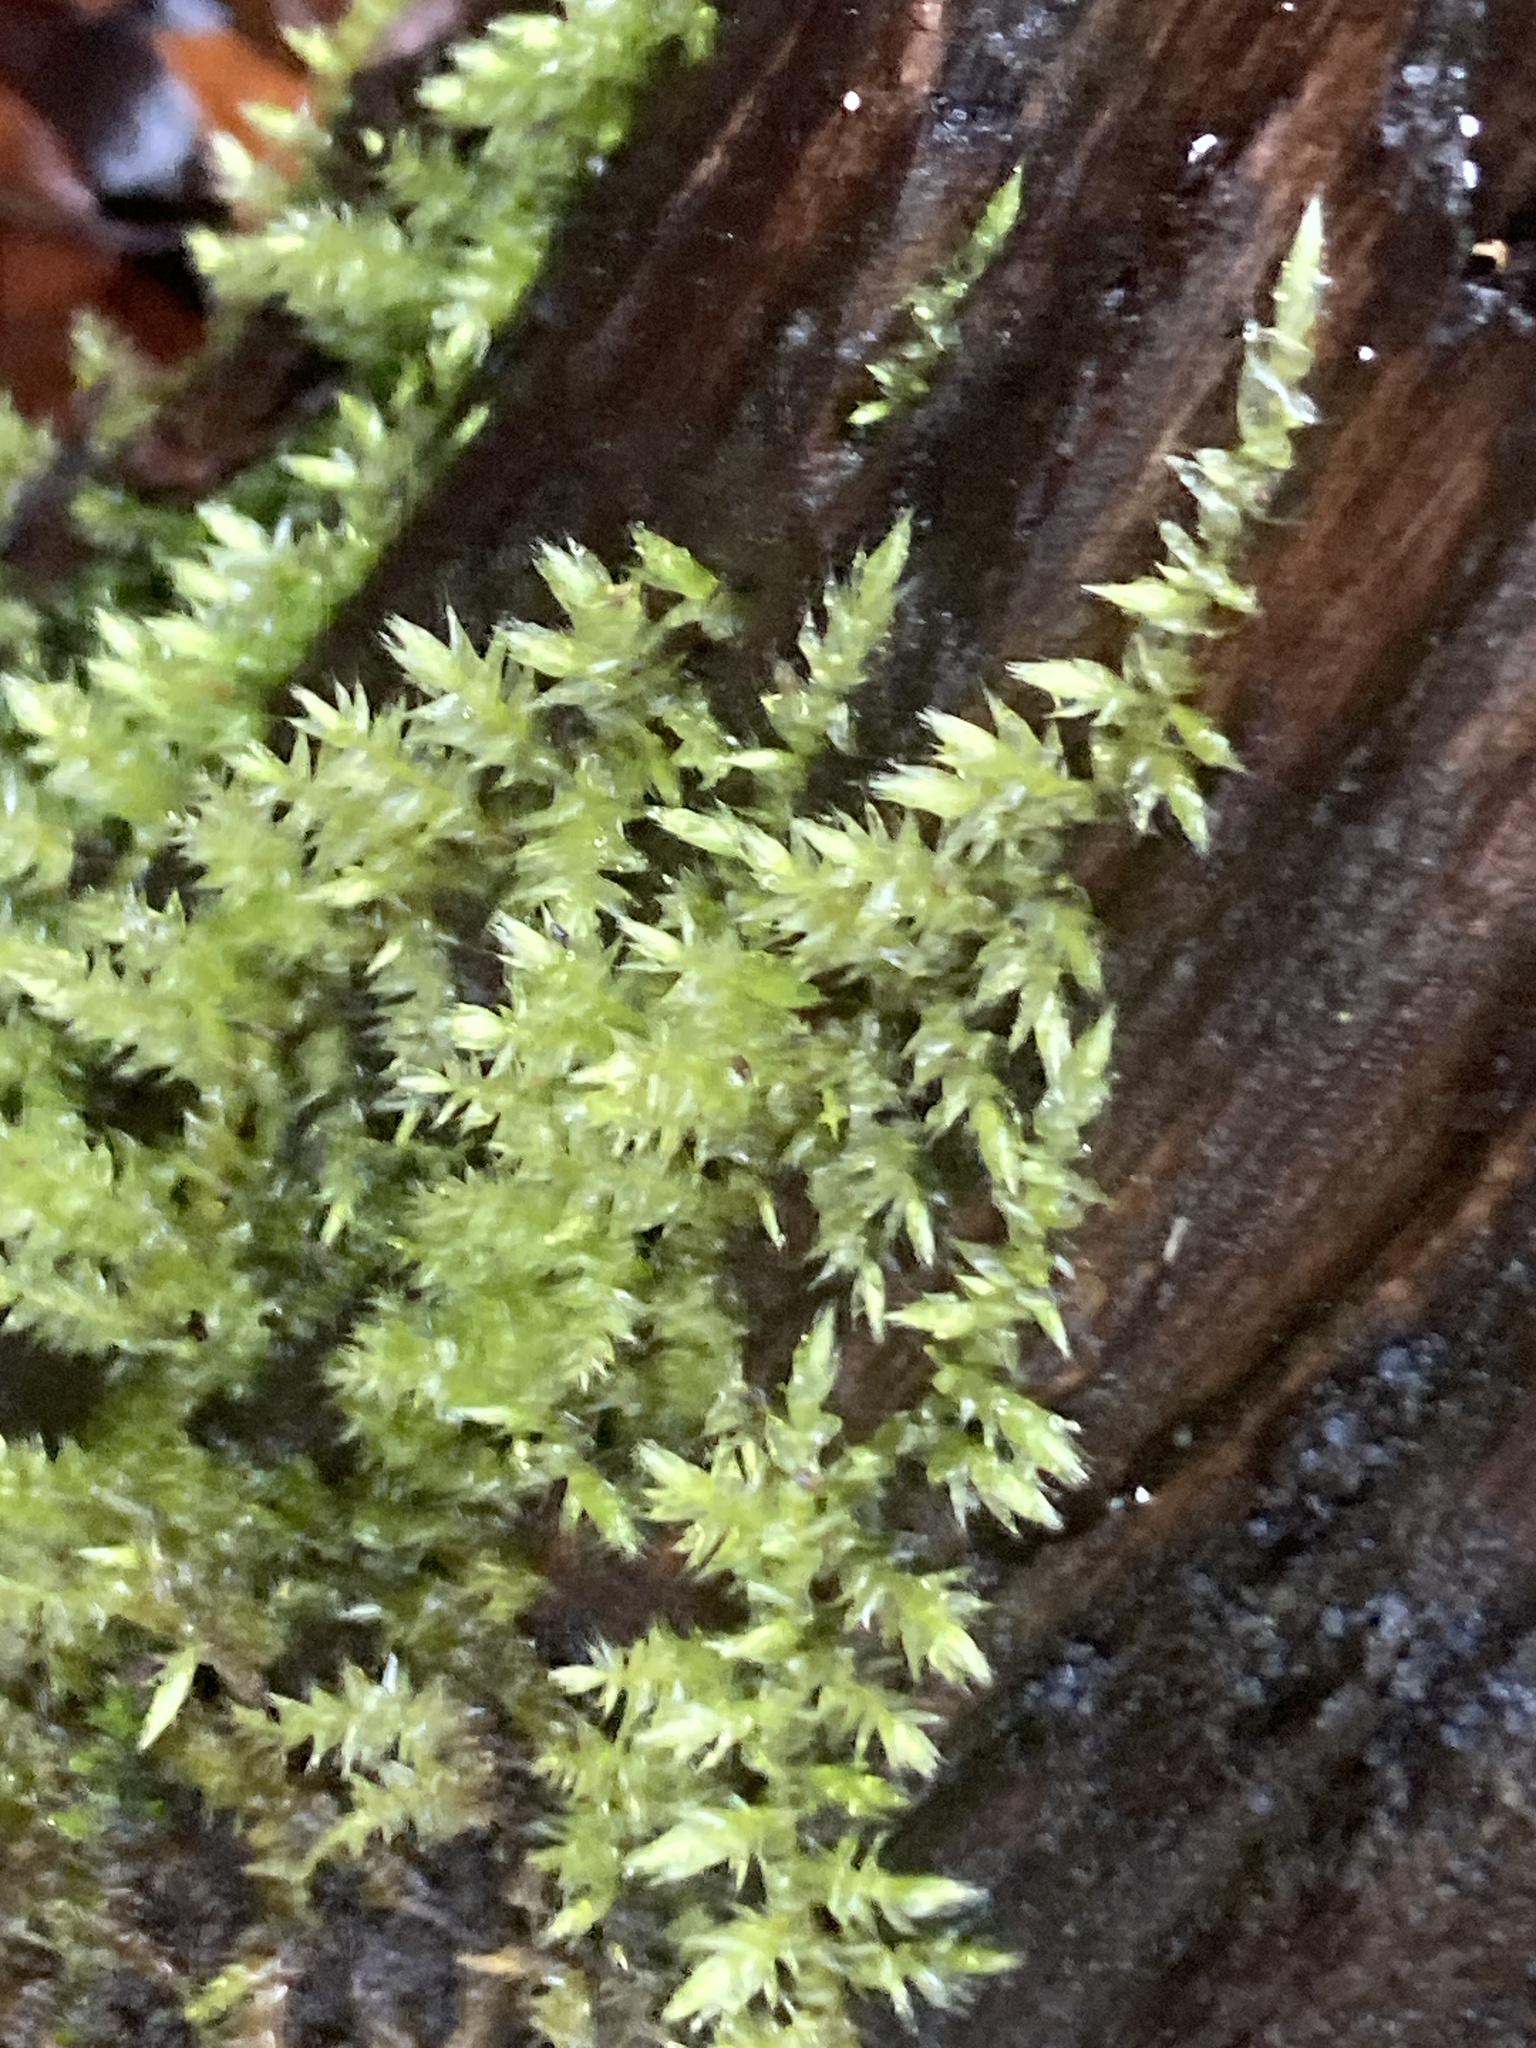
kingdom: Plantae
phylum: Bryophyta
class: Bryopsida
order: Hypnales
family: Brachytheciaceae
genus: Brachythecium
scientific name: Brachythecium rutabulum
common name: Rough-stalked feather-moss
